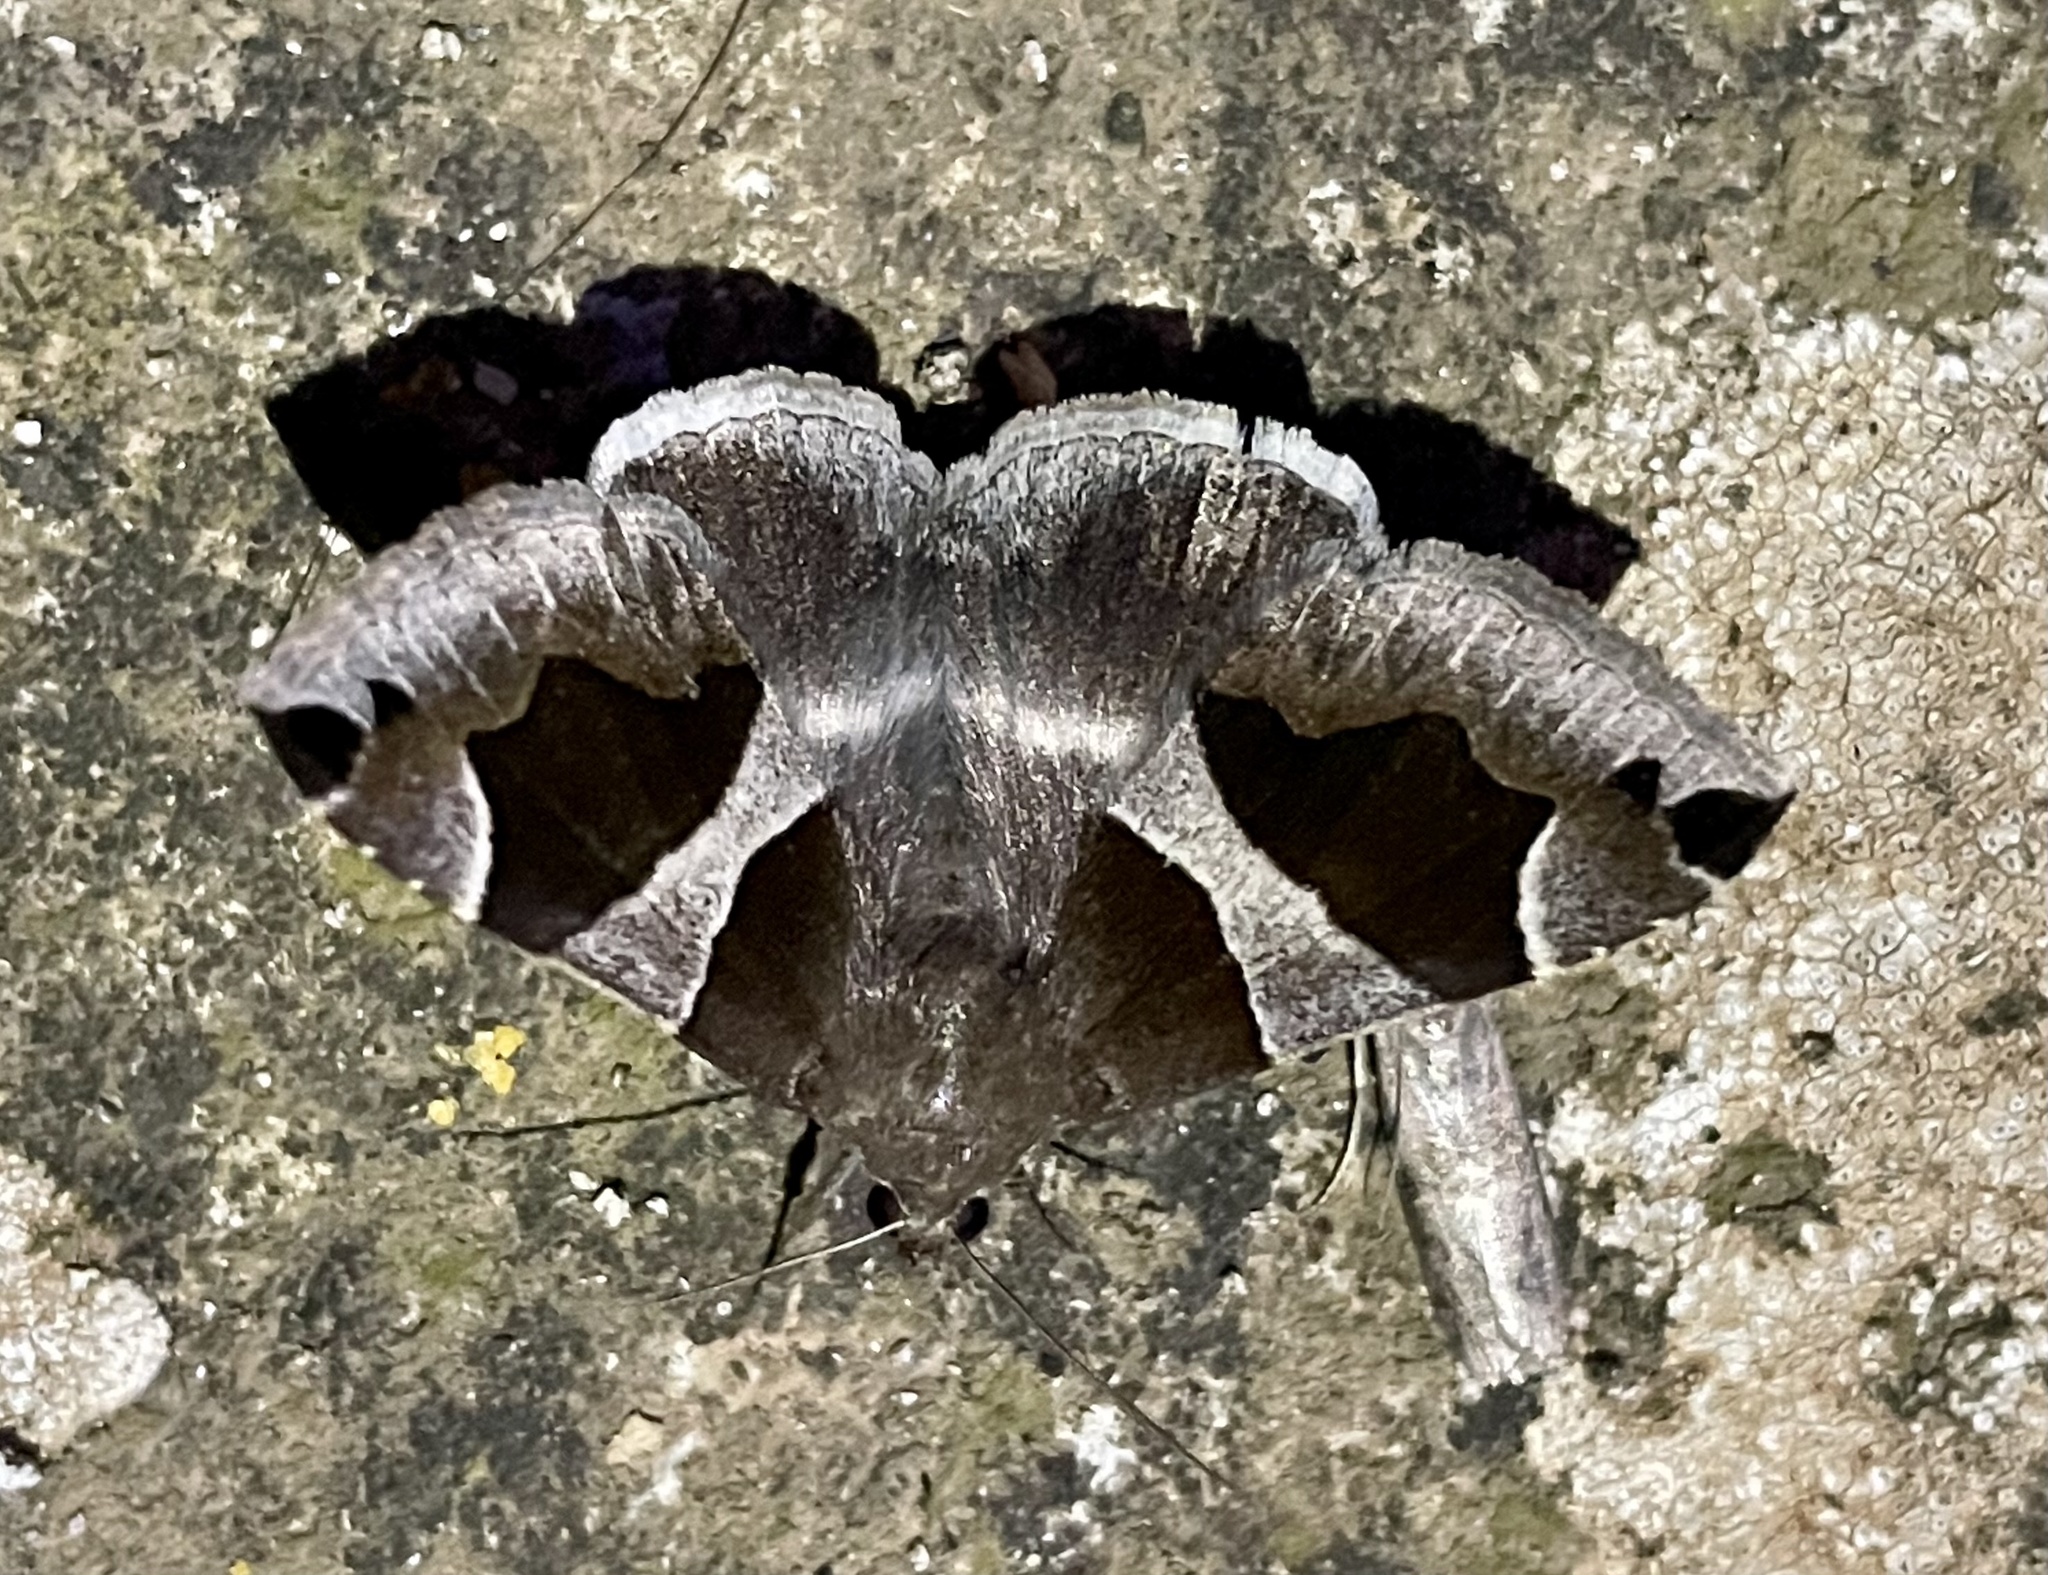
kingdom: Animalia
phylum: Arthropoda
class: Insecta
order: Lepidoptera
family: Erebidae
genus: Dysgonia
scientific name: Dysgonia algira
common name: Passenger
